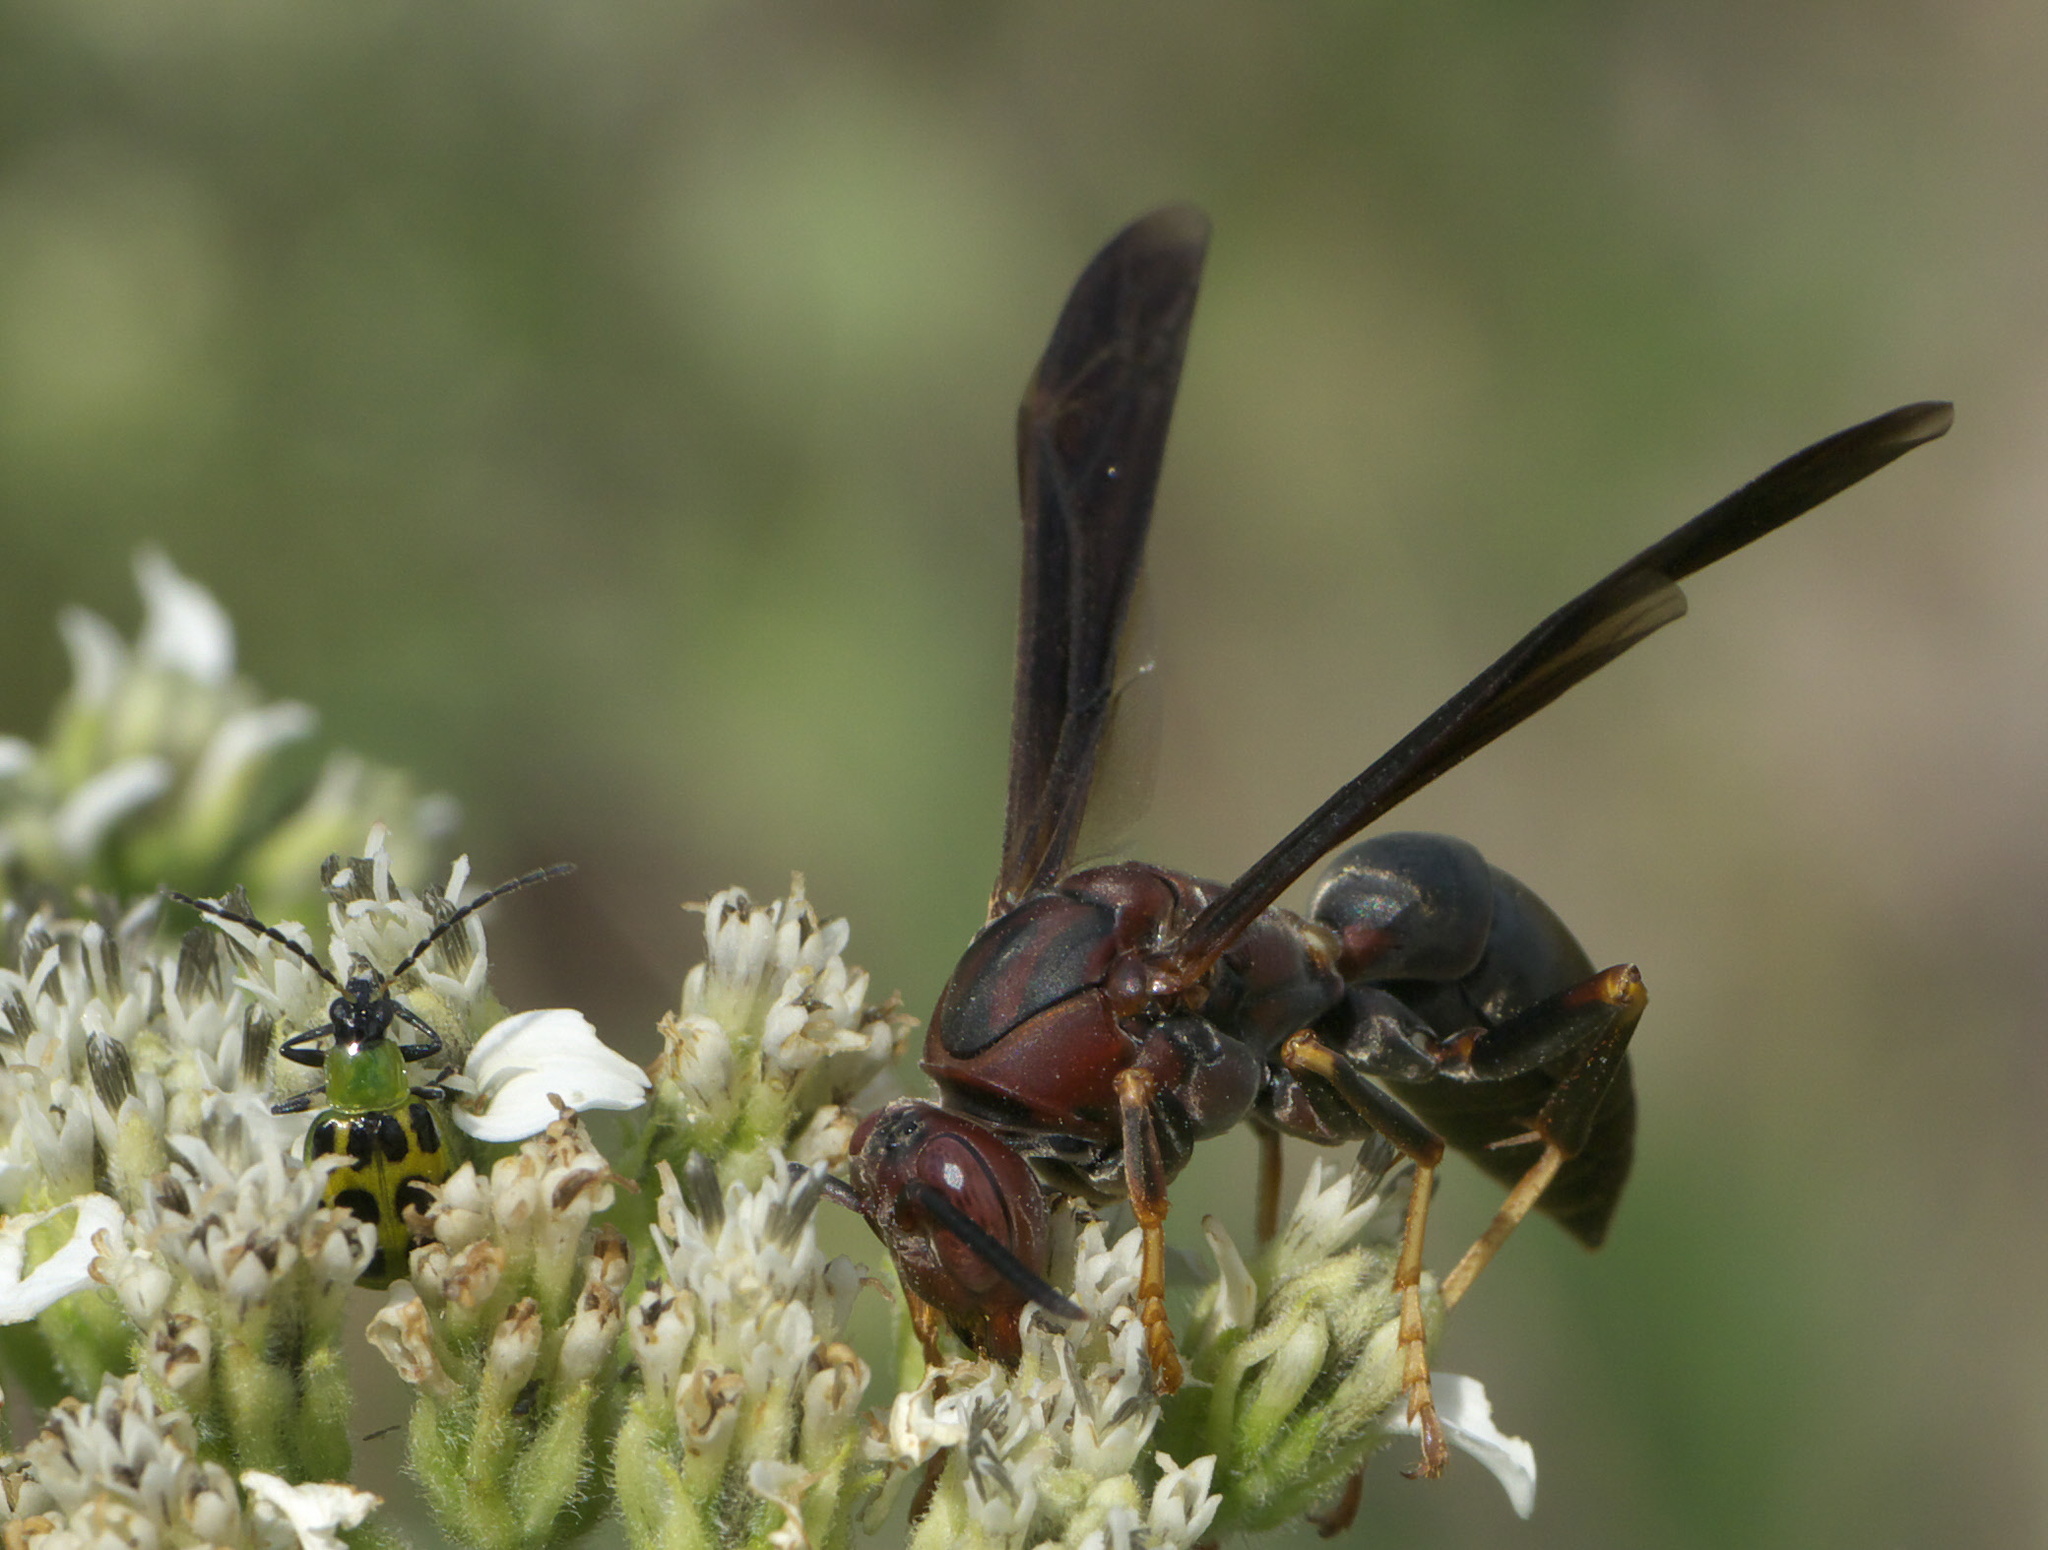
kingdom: Animalia
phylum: Arthropoda
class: Insecta
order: Hymenoptera
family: Eumenidae
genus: Polistes
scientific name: Polistes metricus
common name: Metric paper wasp
